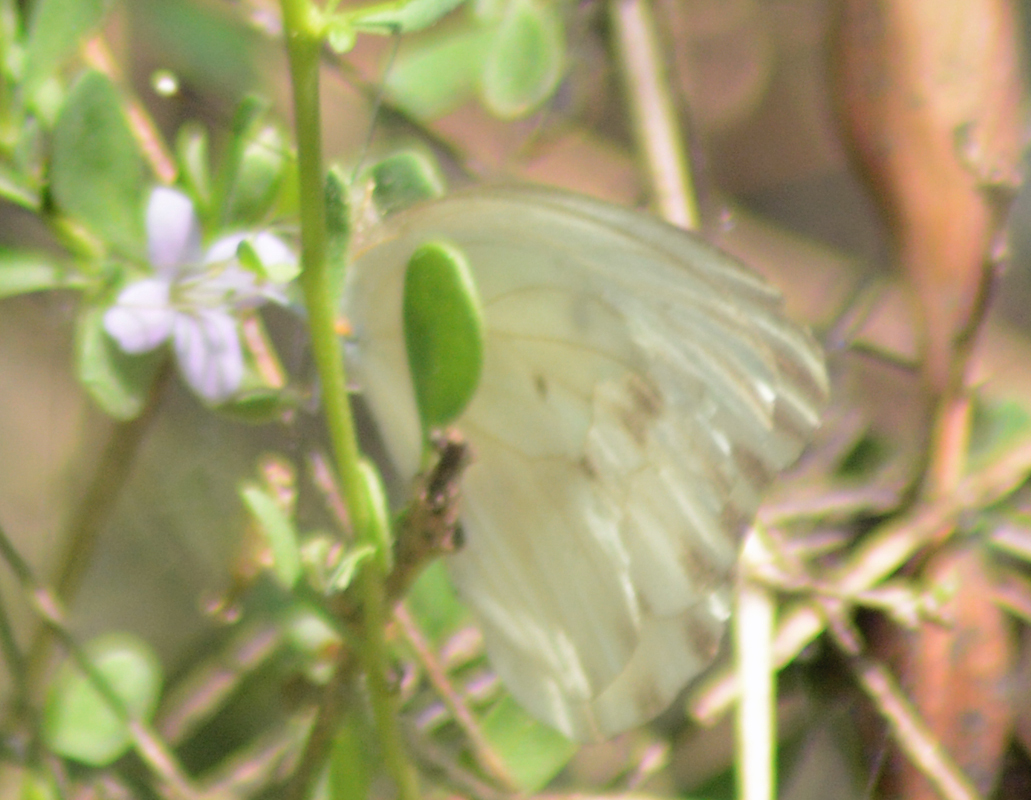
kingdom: Animalia
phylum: Arthropoda
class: Insecta
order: Lepidoptera
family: Pieridae
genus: Ascia
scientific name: Ascia monuste
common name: Great southern white
